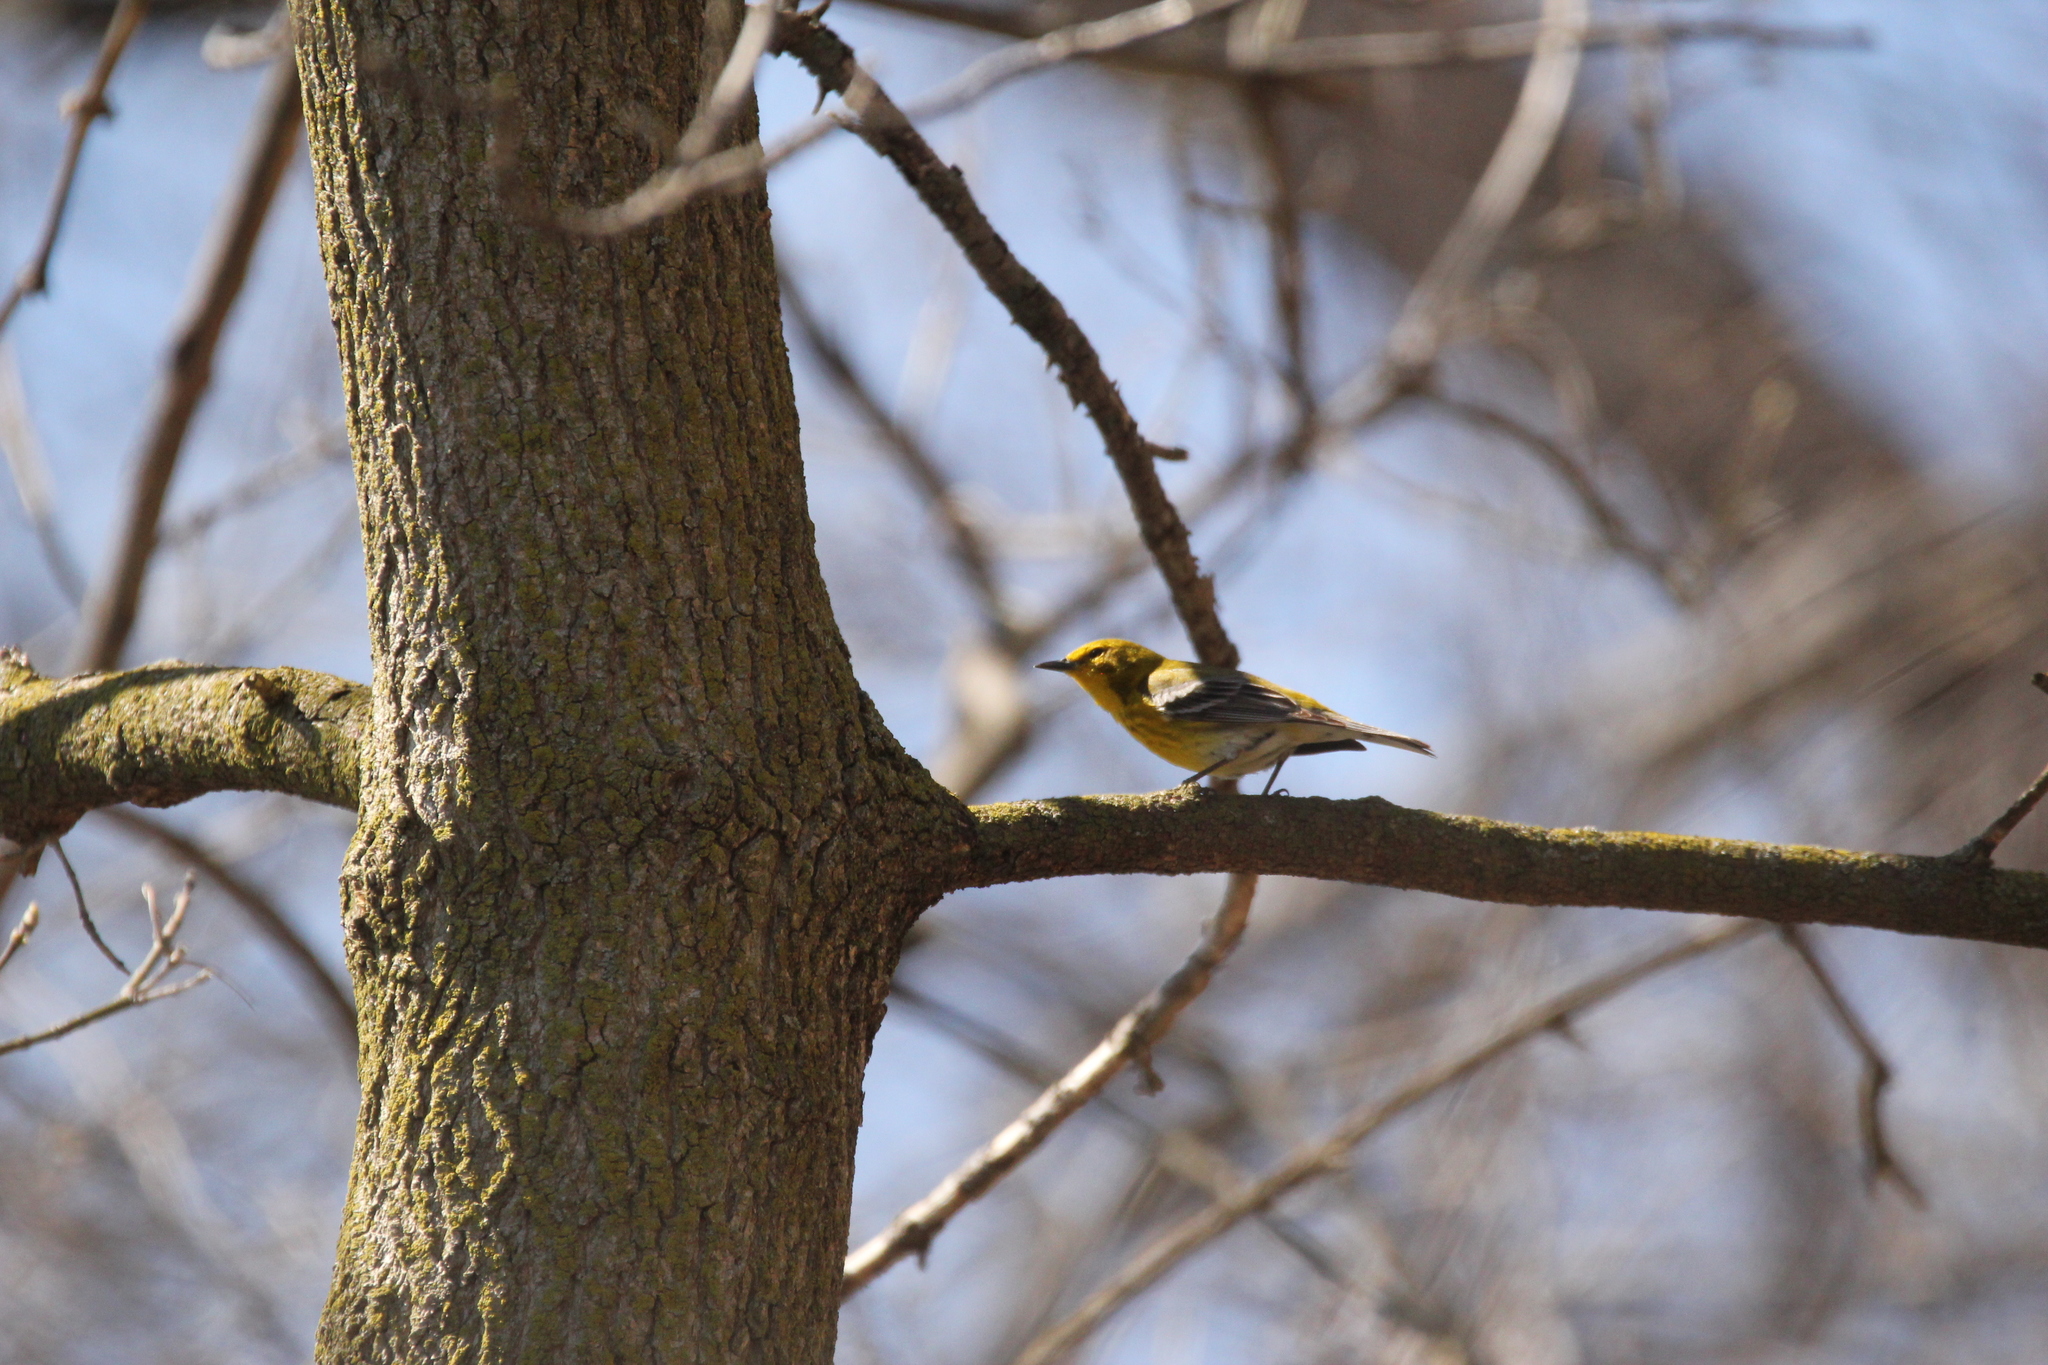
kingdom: Animalia
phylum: Chordata
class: Aves
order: Passeriformes
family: Parulidae
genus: Setophaga
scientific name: Setophaga pinus
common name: Pine warbler
